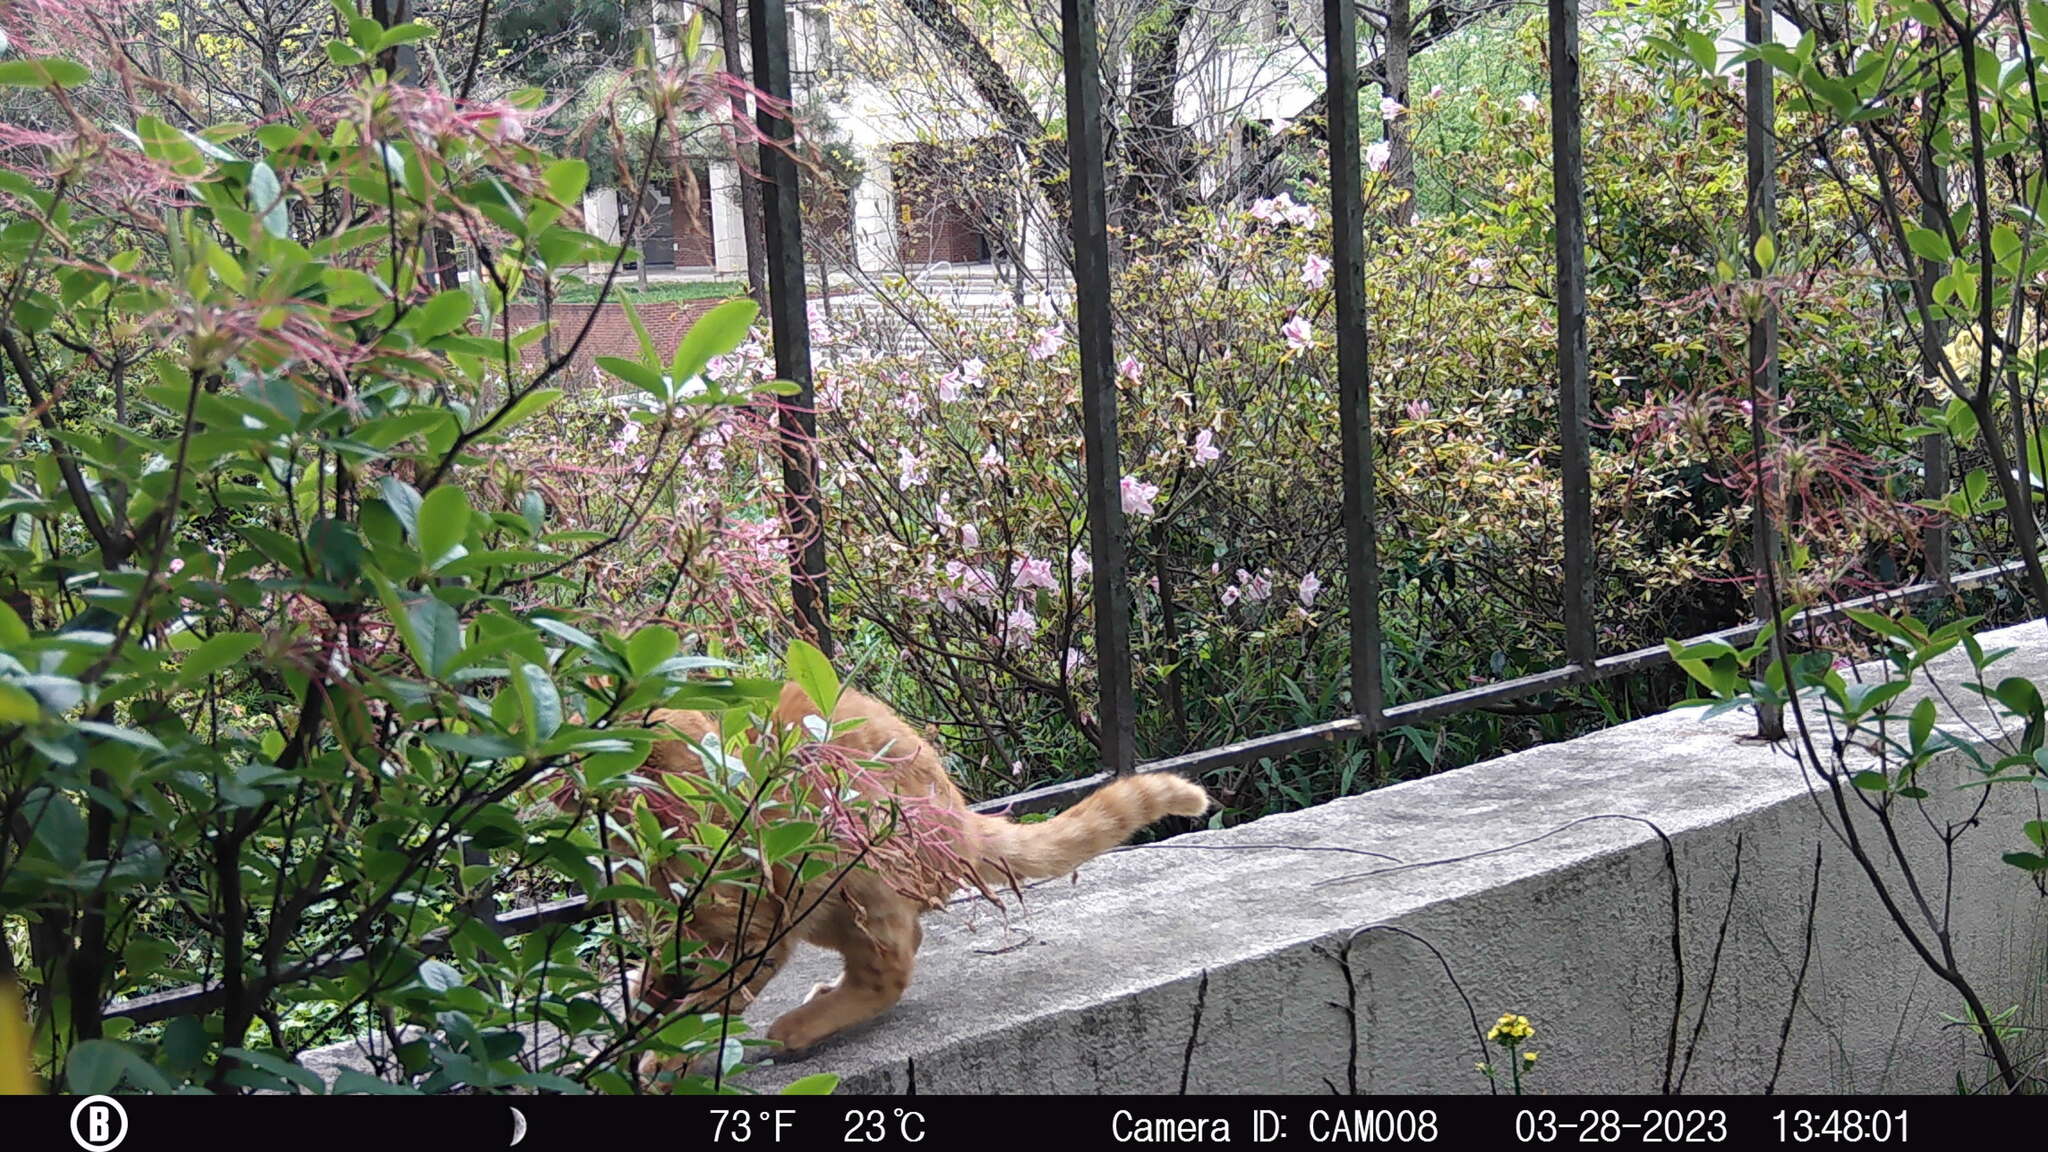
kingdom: Animalia
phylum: Chordata
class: Mammalia
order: Carnivora
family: Felidae
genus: Felis
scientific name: Felis catus
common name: Domestic cat
